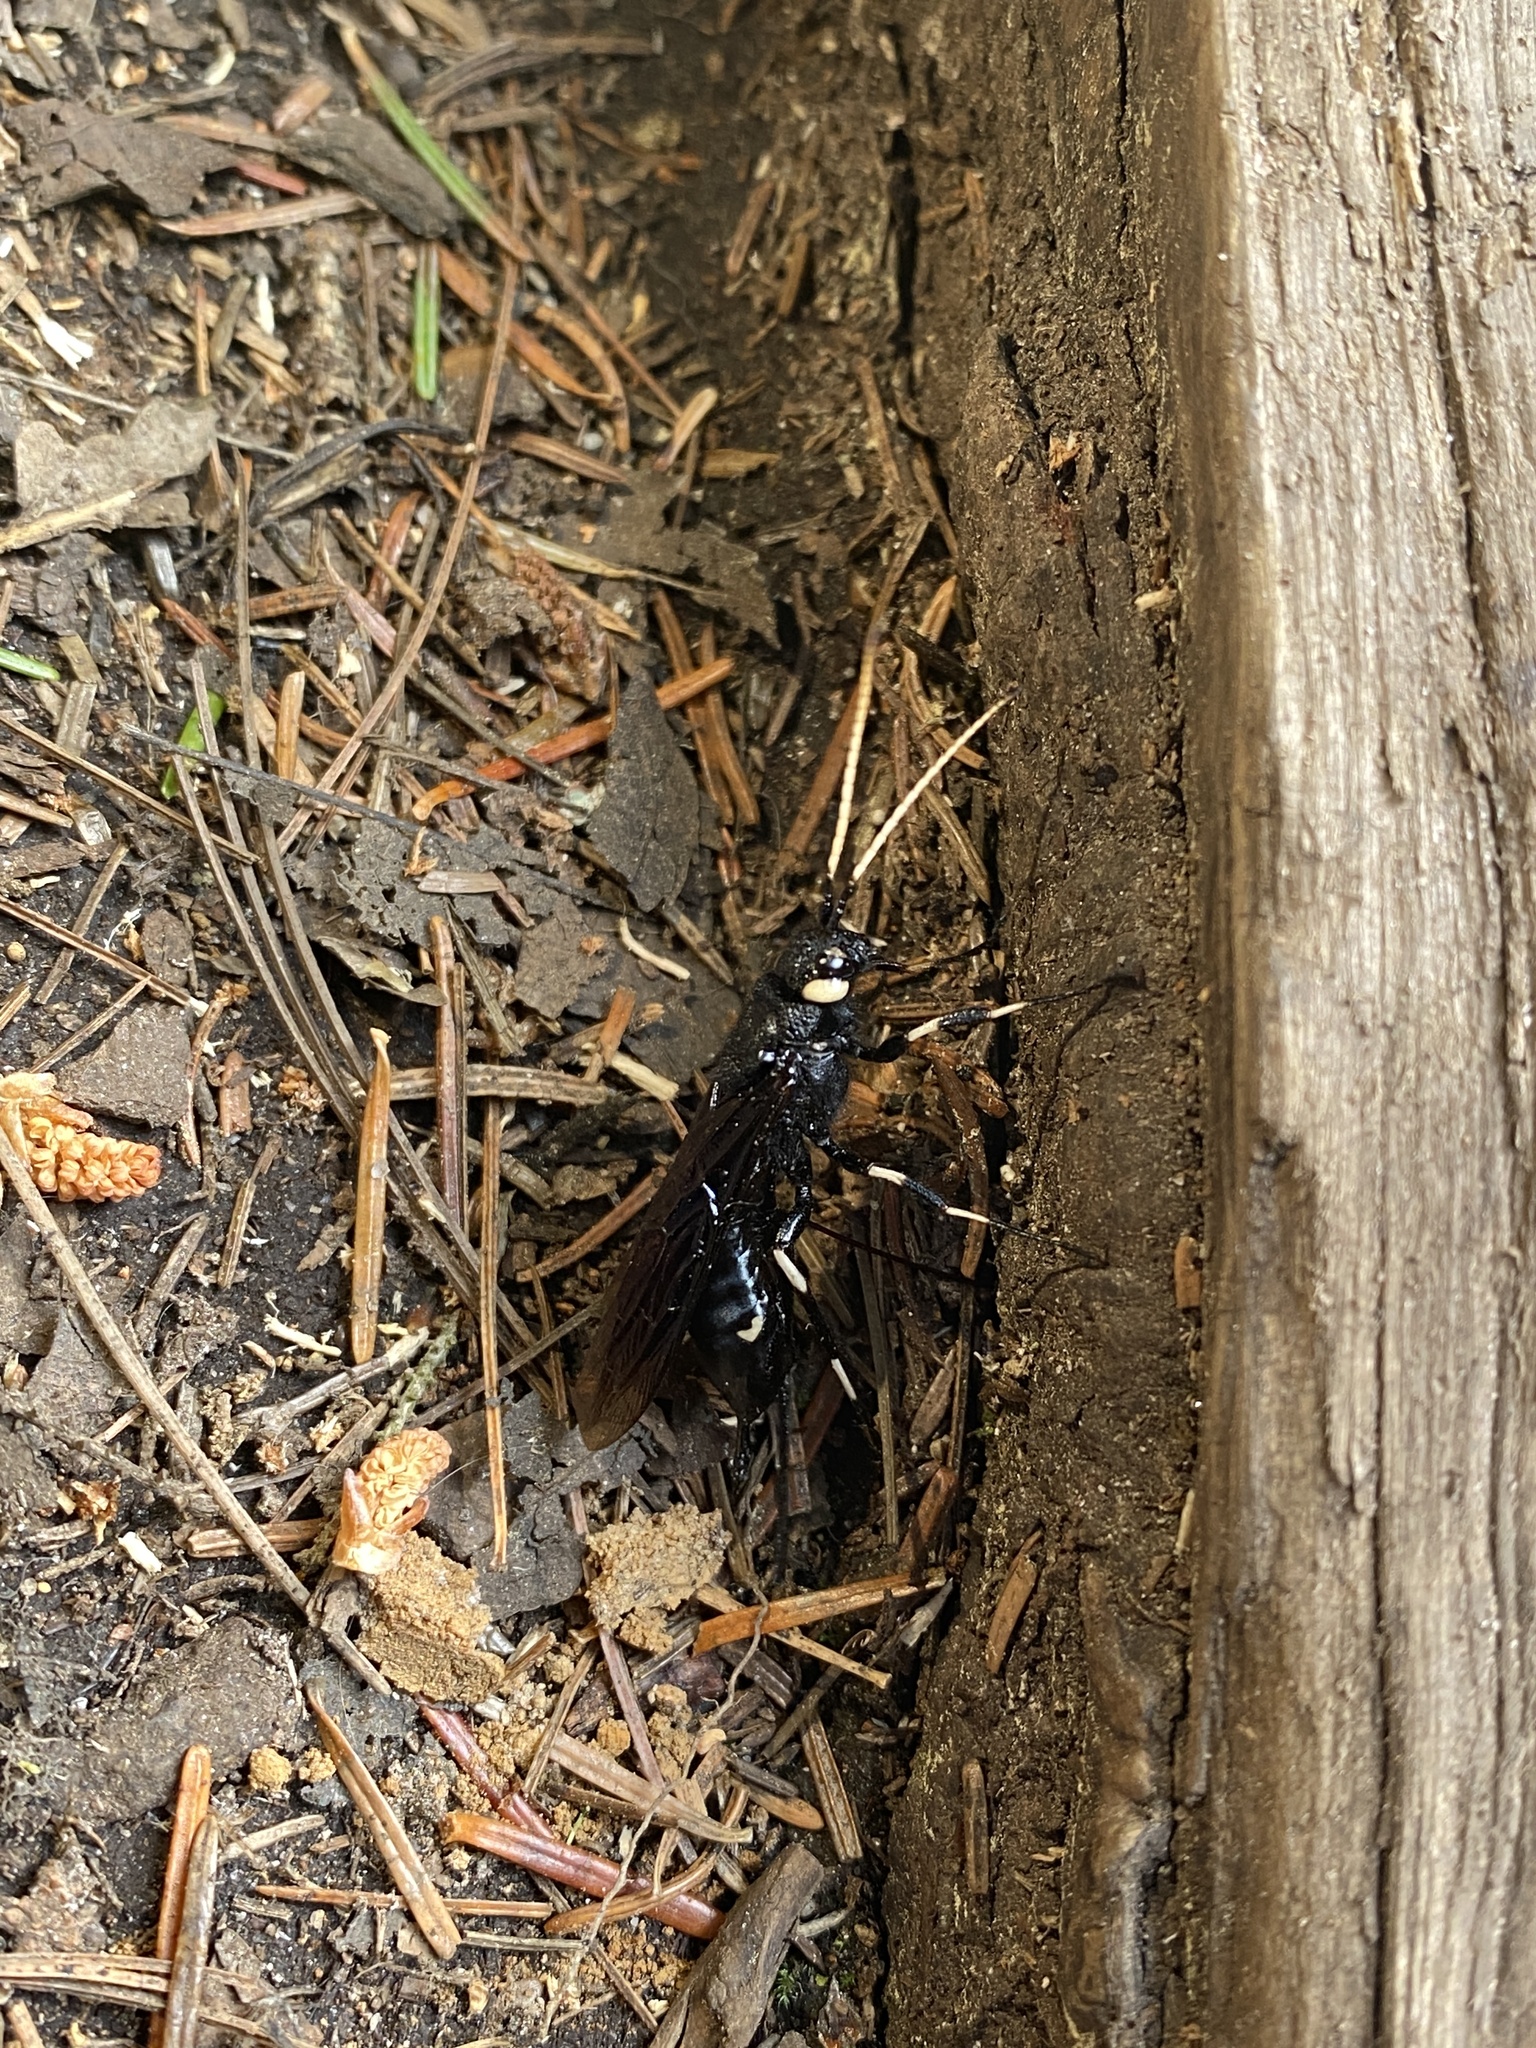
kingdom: Animalia
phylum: Arthropoda
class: Insecta
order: Hymenoptera
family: Siricidae
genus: Urocerus
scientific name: Urocerus albicornis
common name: White-horned horntail
